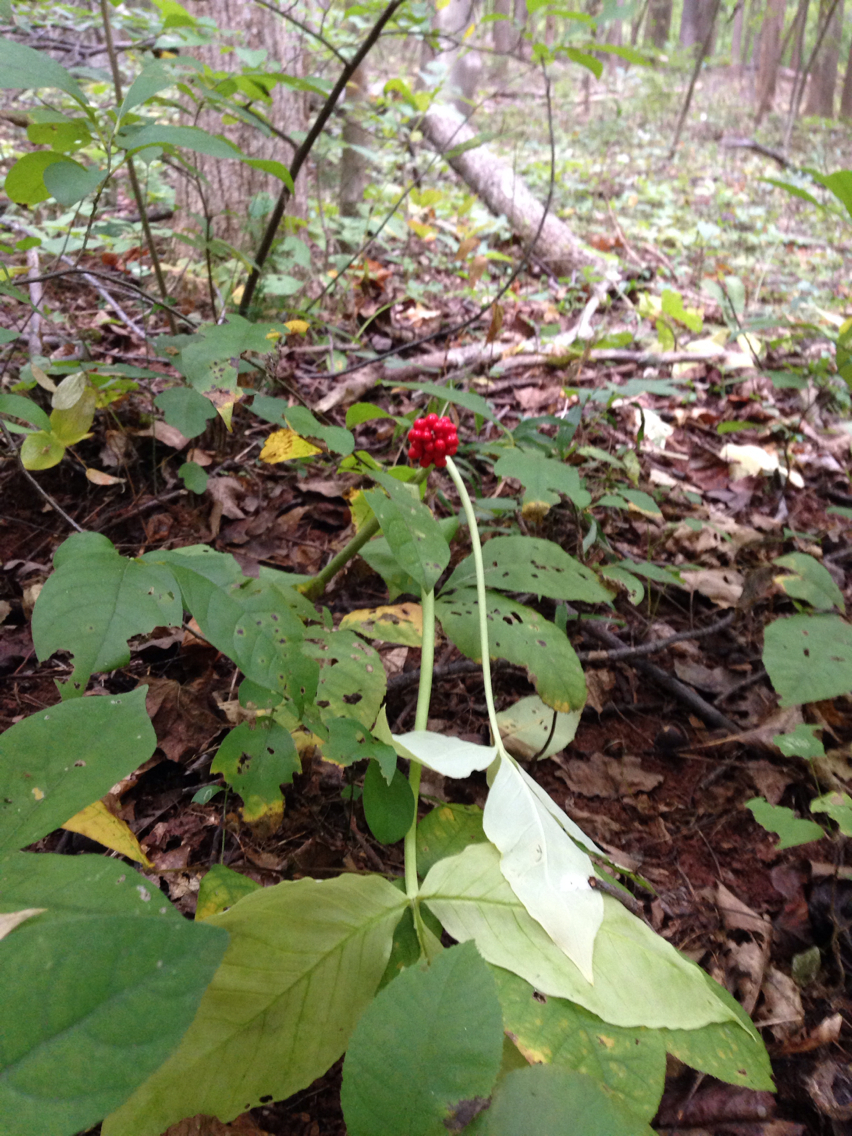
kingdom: Plantae
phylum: Tracheophyta
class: Liliopsida
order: Alismatales
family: Araceae
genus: Arisaema
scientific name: Arisaema triphyllum
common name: Jack-in-the-pulpit
